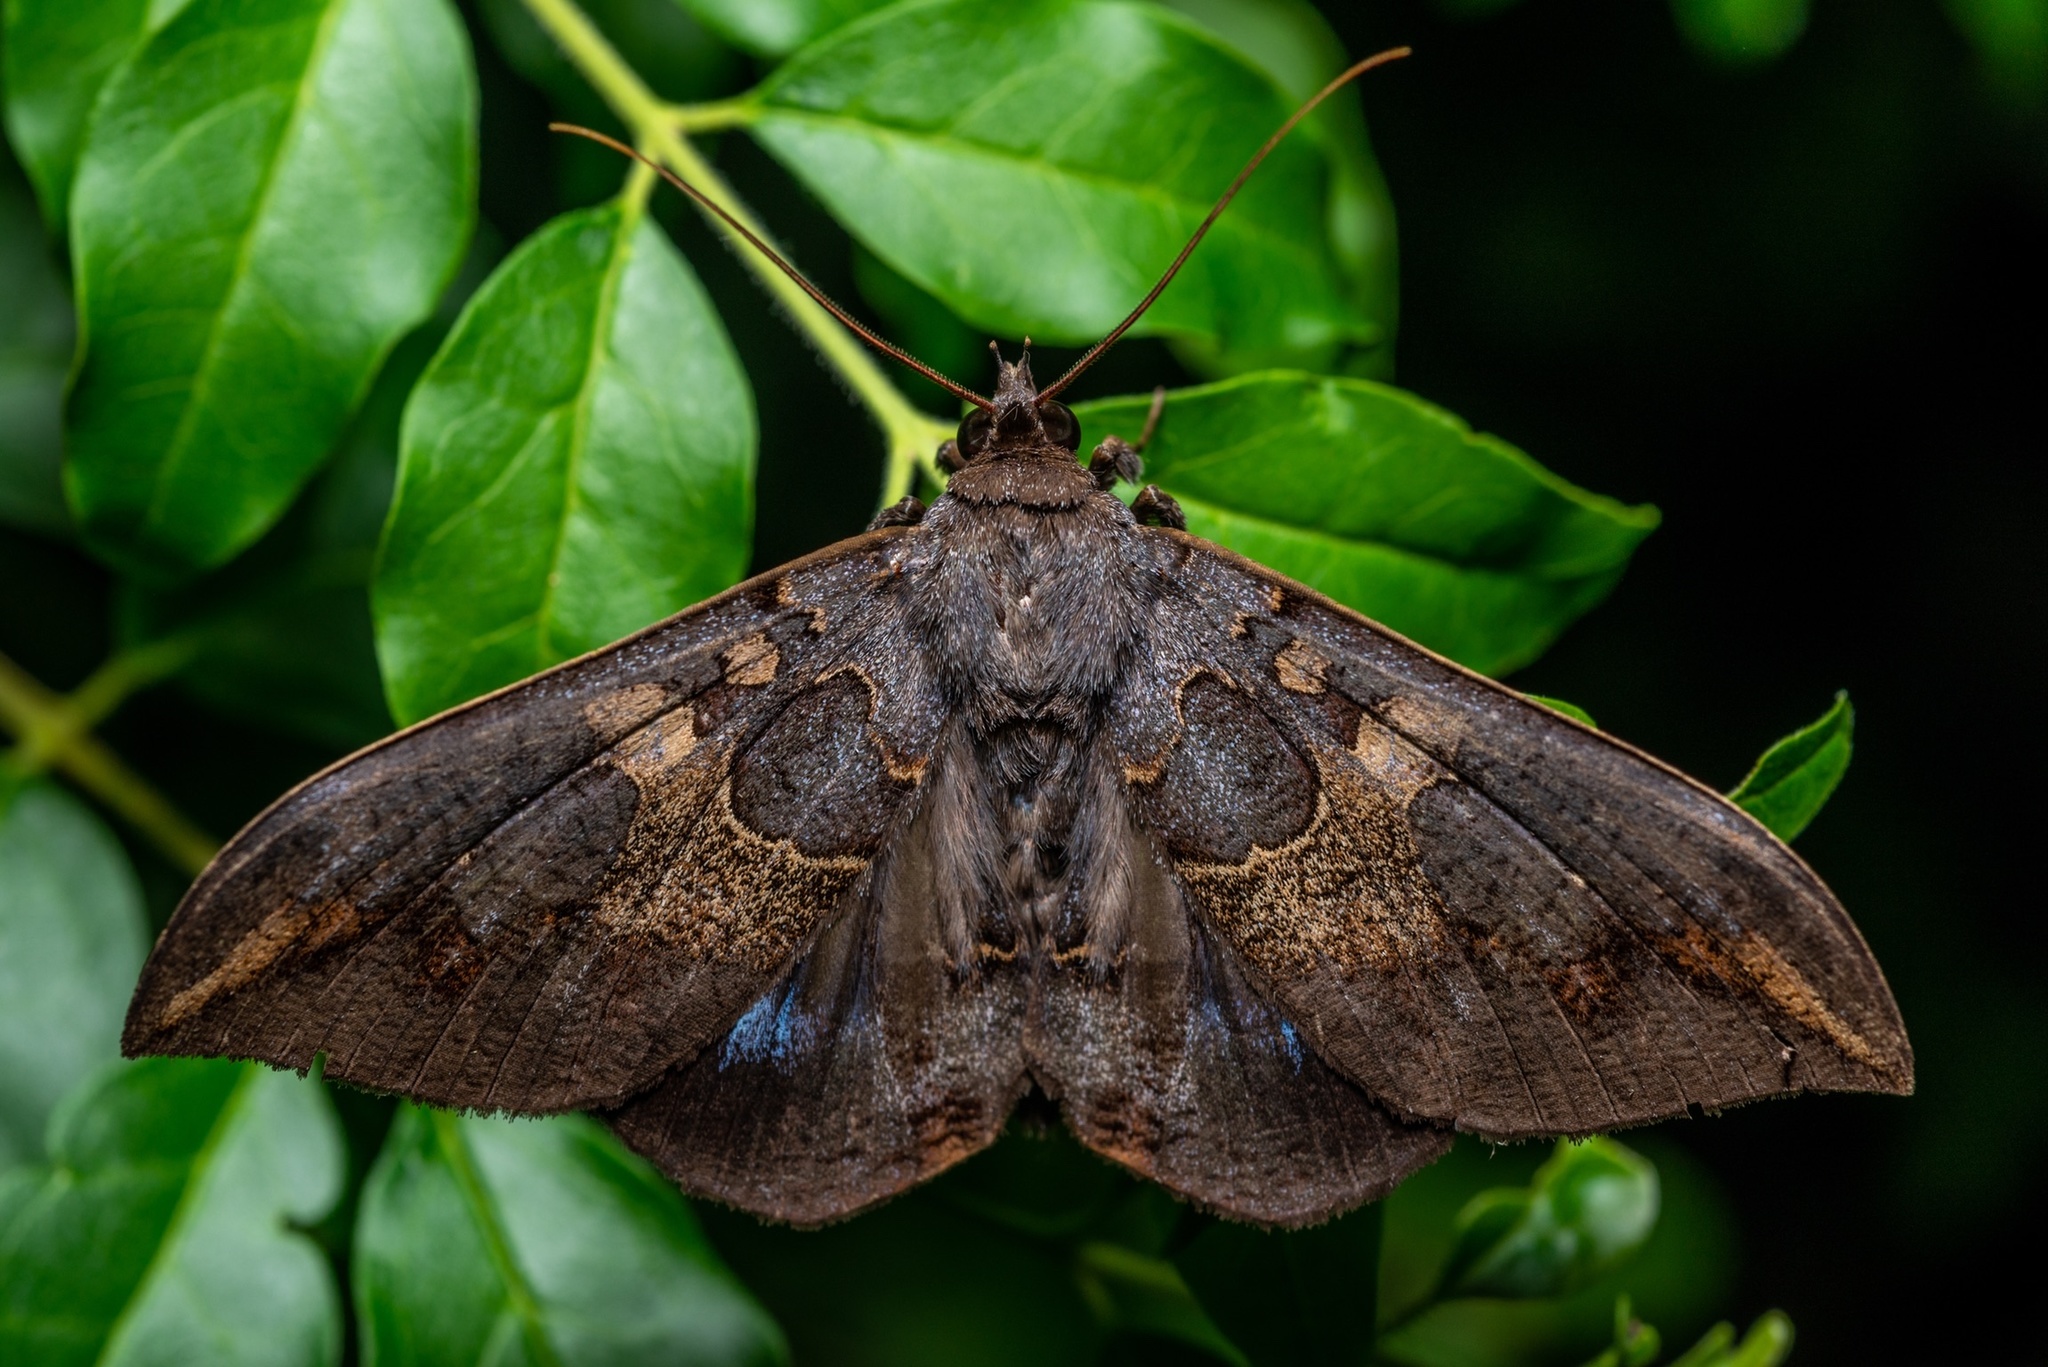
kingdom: Animalia
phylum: Arthropoda
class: Insecta
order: Lepidoptera
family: Erebidae
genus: Ischyja
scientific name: Ischyja ferrifracta
